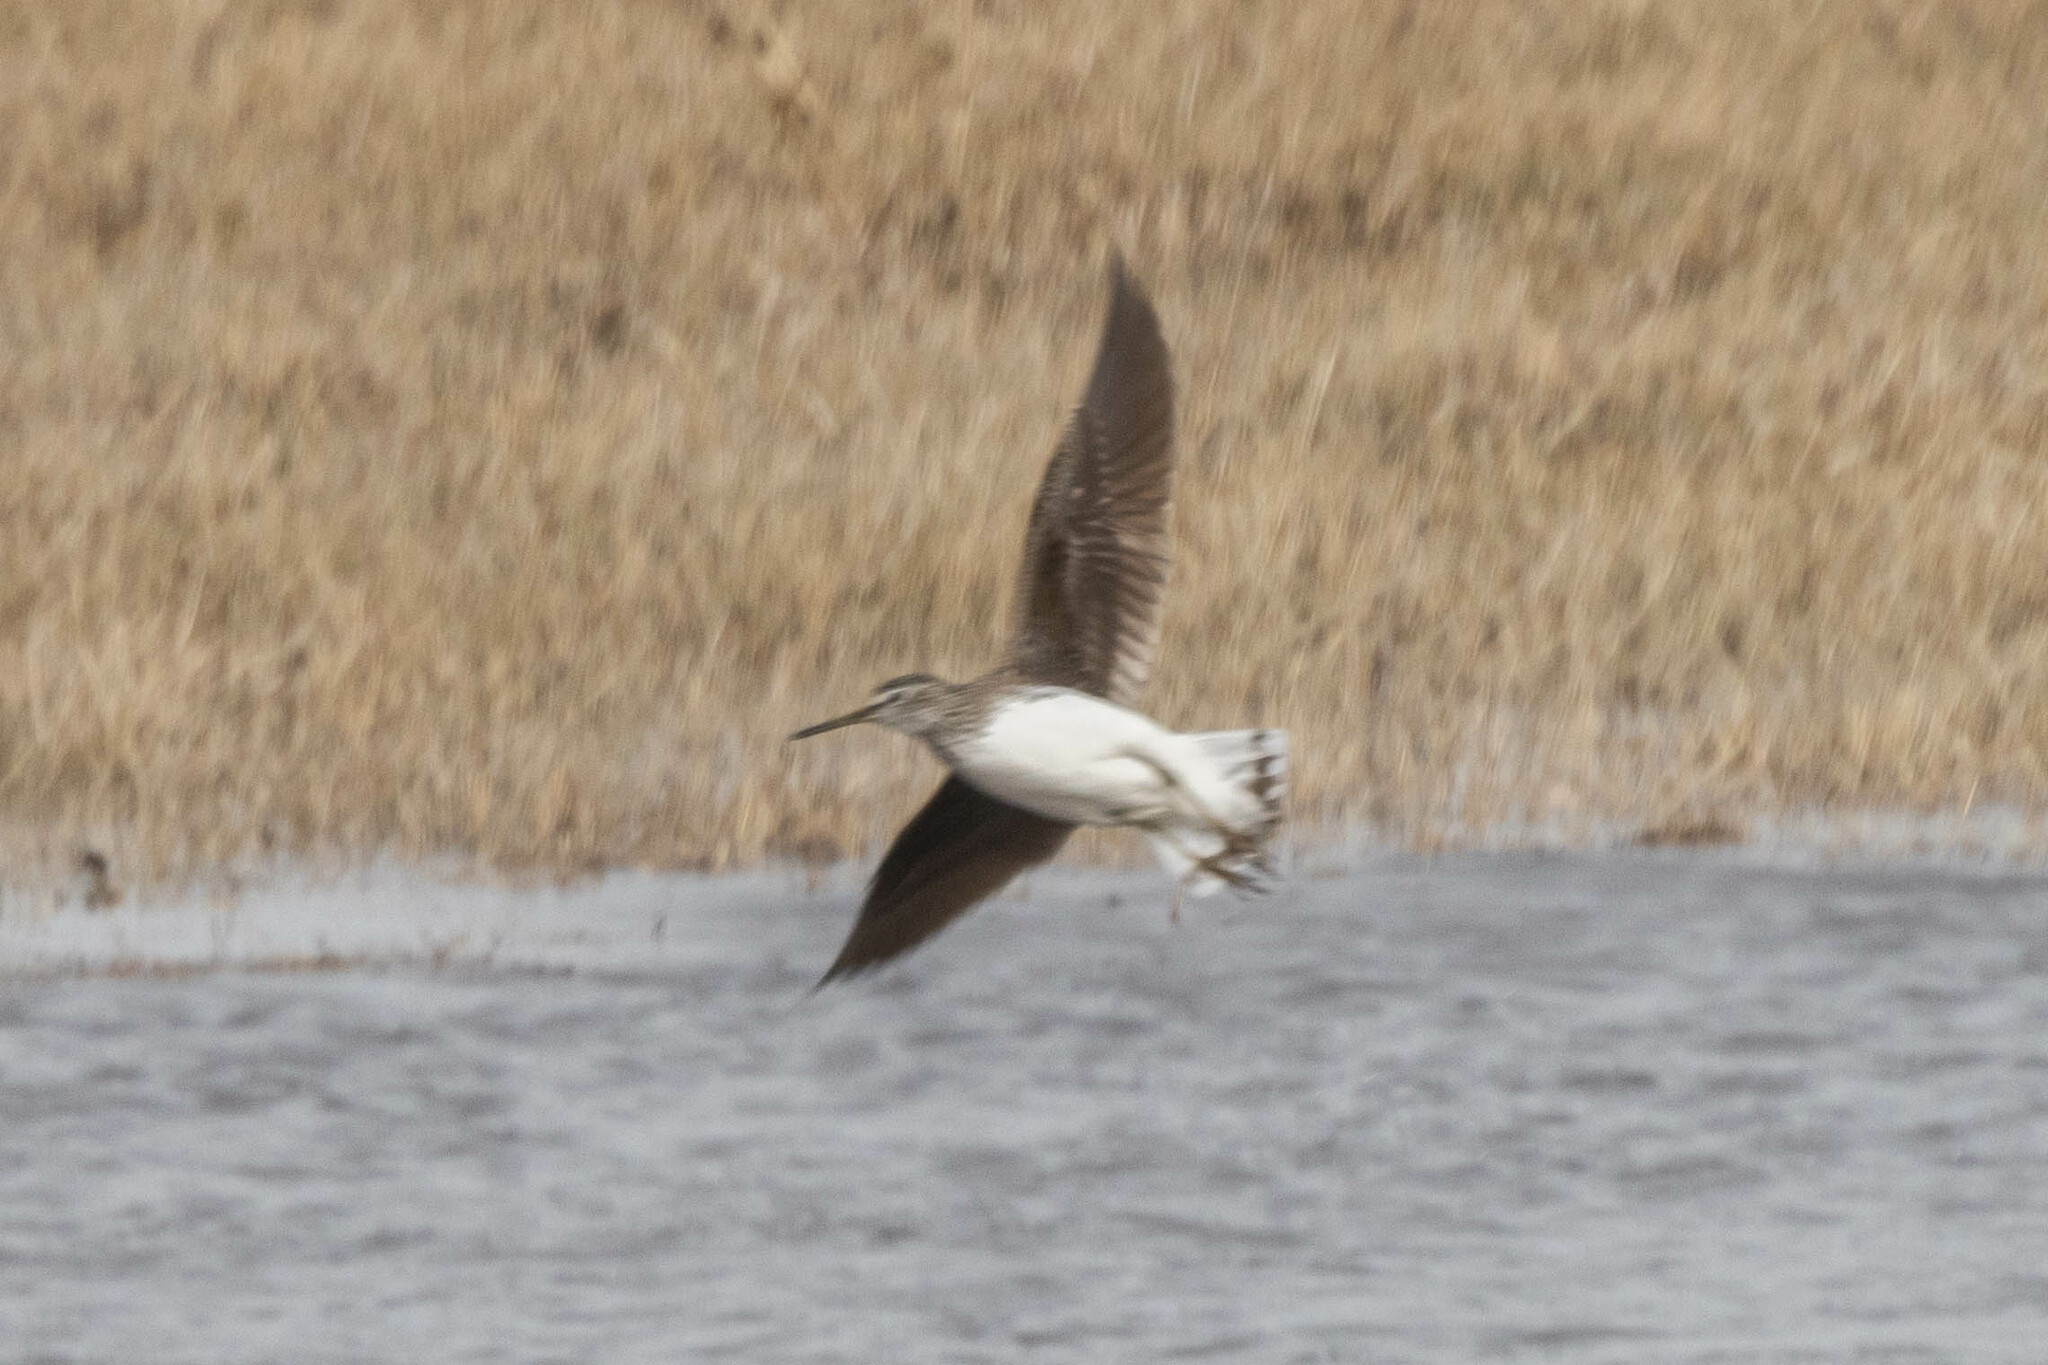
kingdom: Animalia
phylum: Chordata
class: Aves
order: Charadriiformes
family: Scolopacidae
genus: Tringa
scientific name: Tringa ochropus
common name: Green sandpiper
